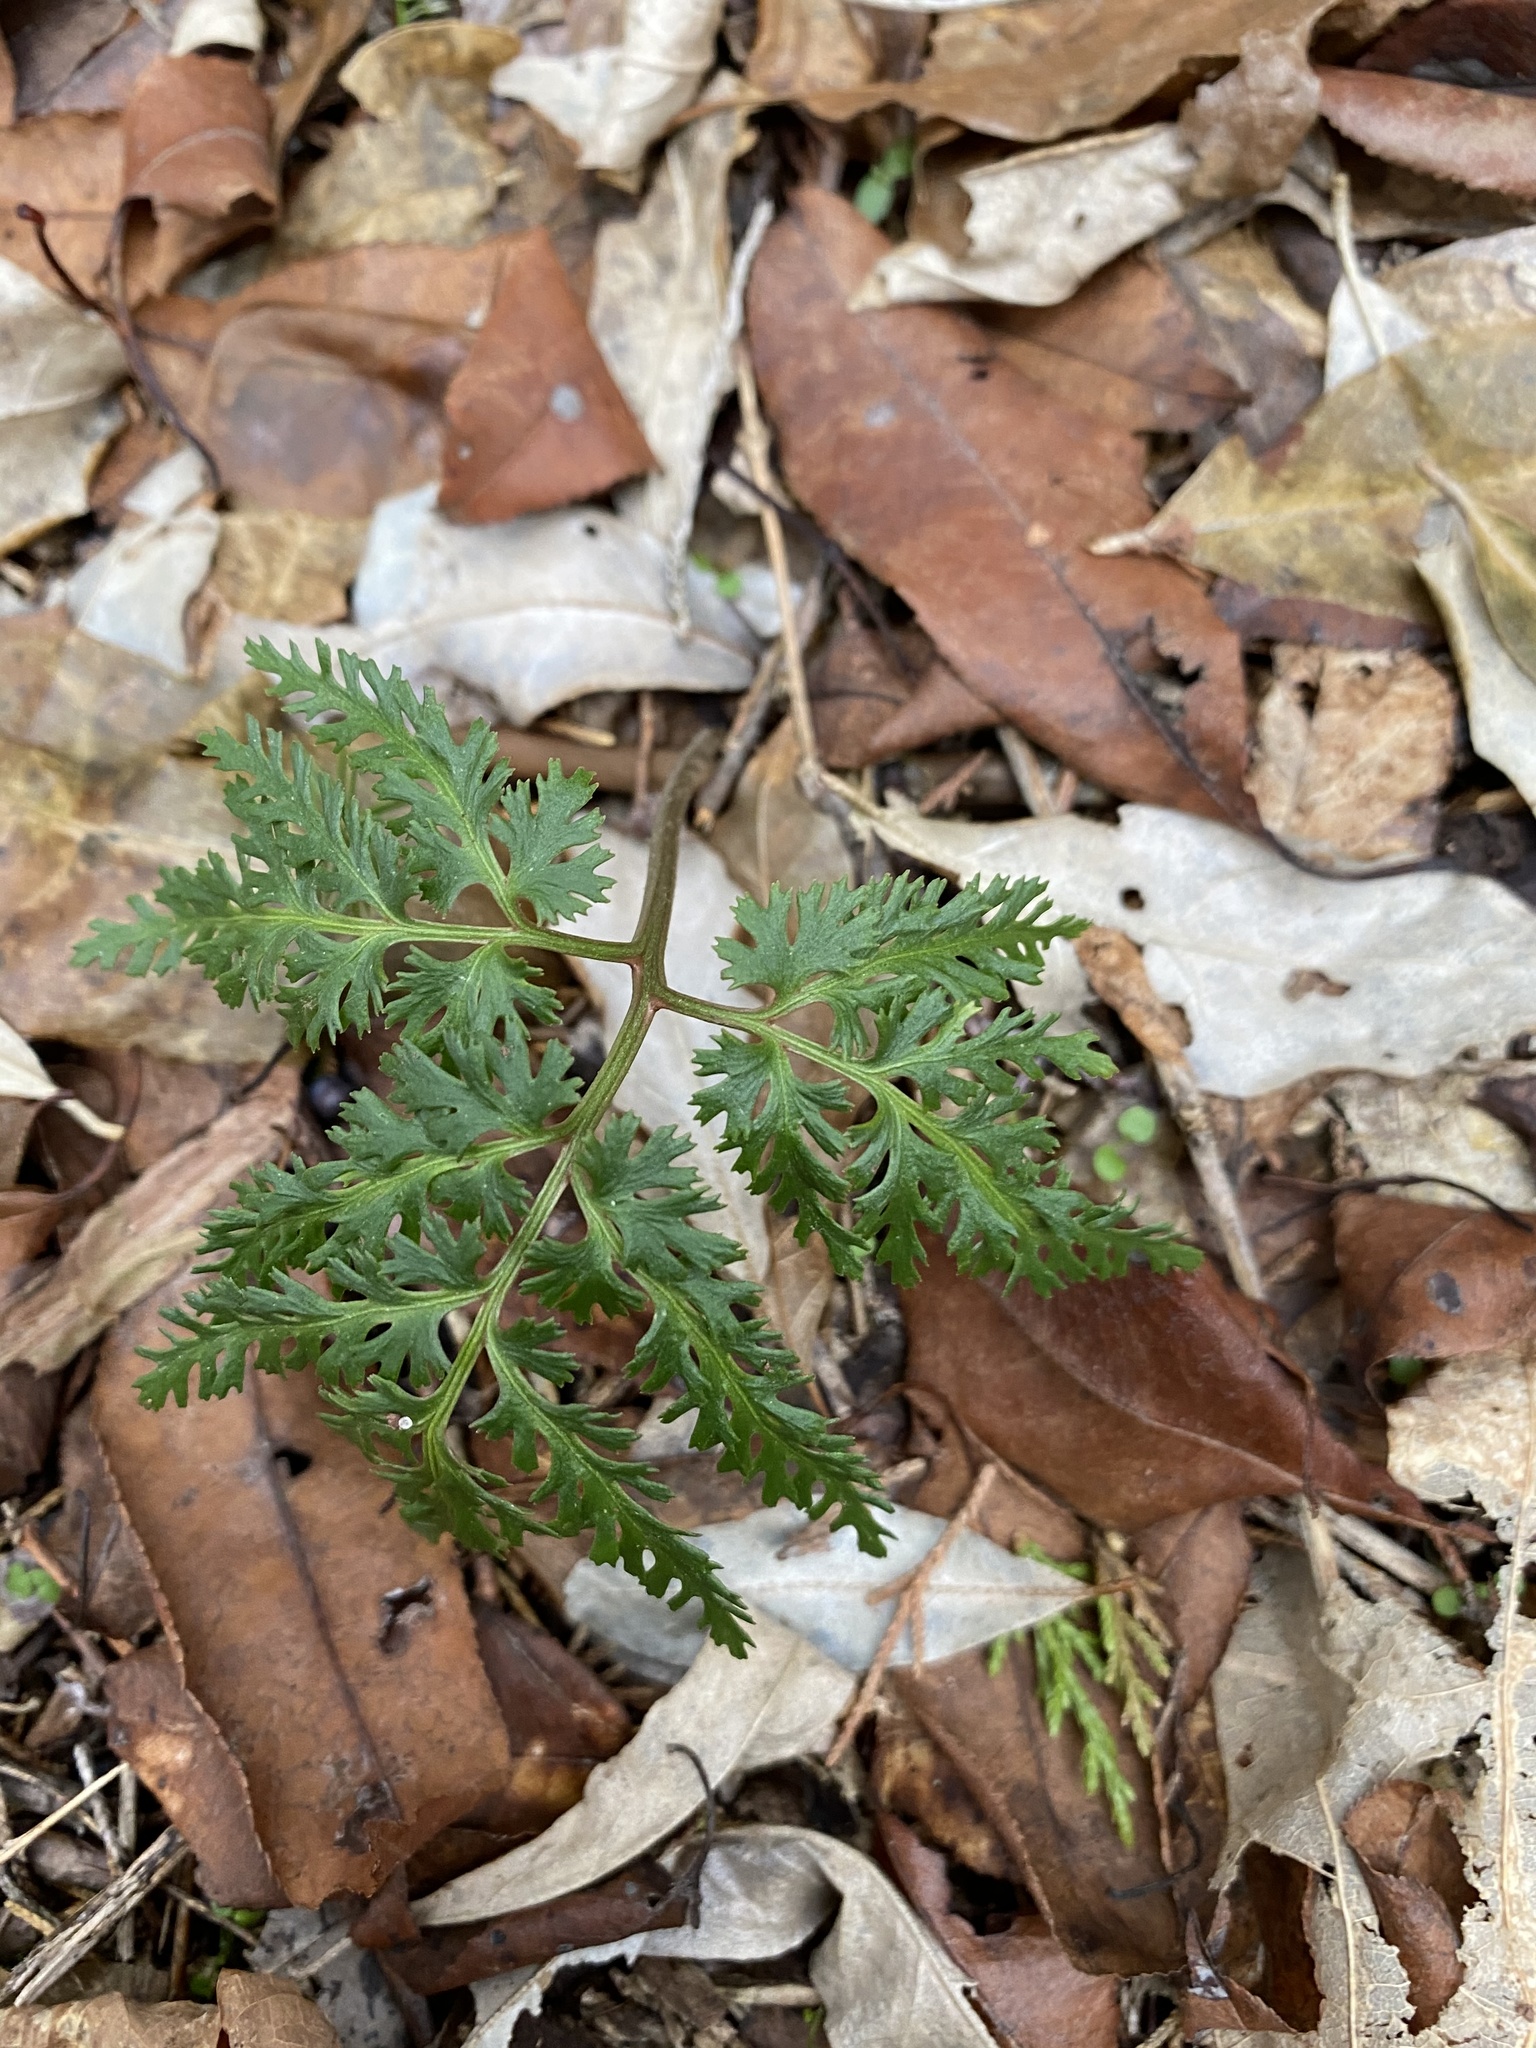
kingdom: Plantae
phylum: Tracheophyta
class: Polypodiopsida
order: Ophioglossales
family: Ophioglossaceae
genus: Sceptridium
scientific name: Sceptridium dissectum
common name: Cut-leaved grapefern
